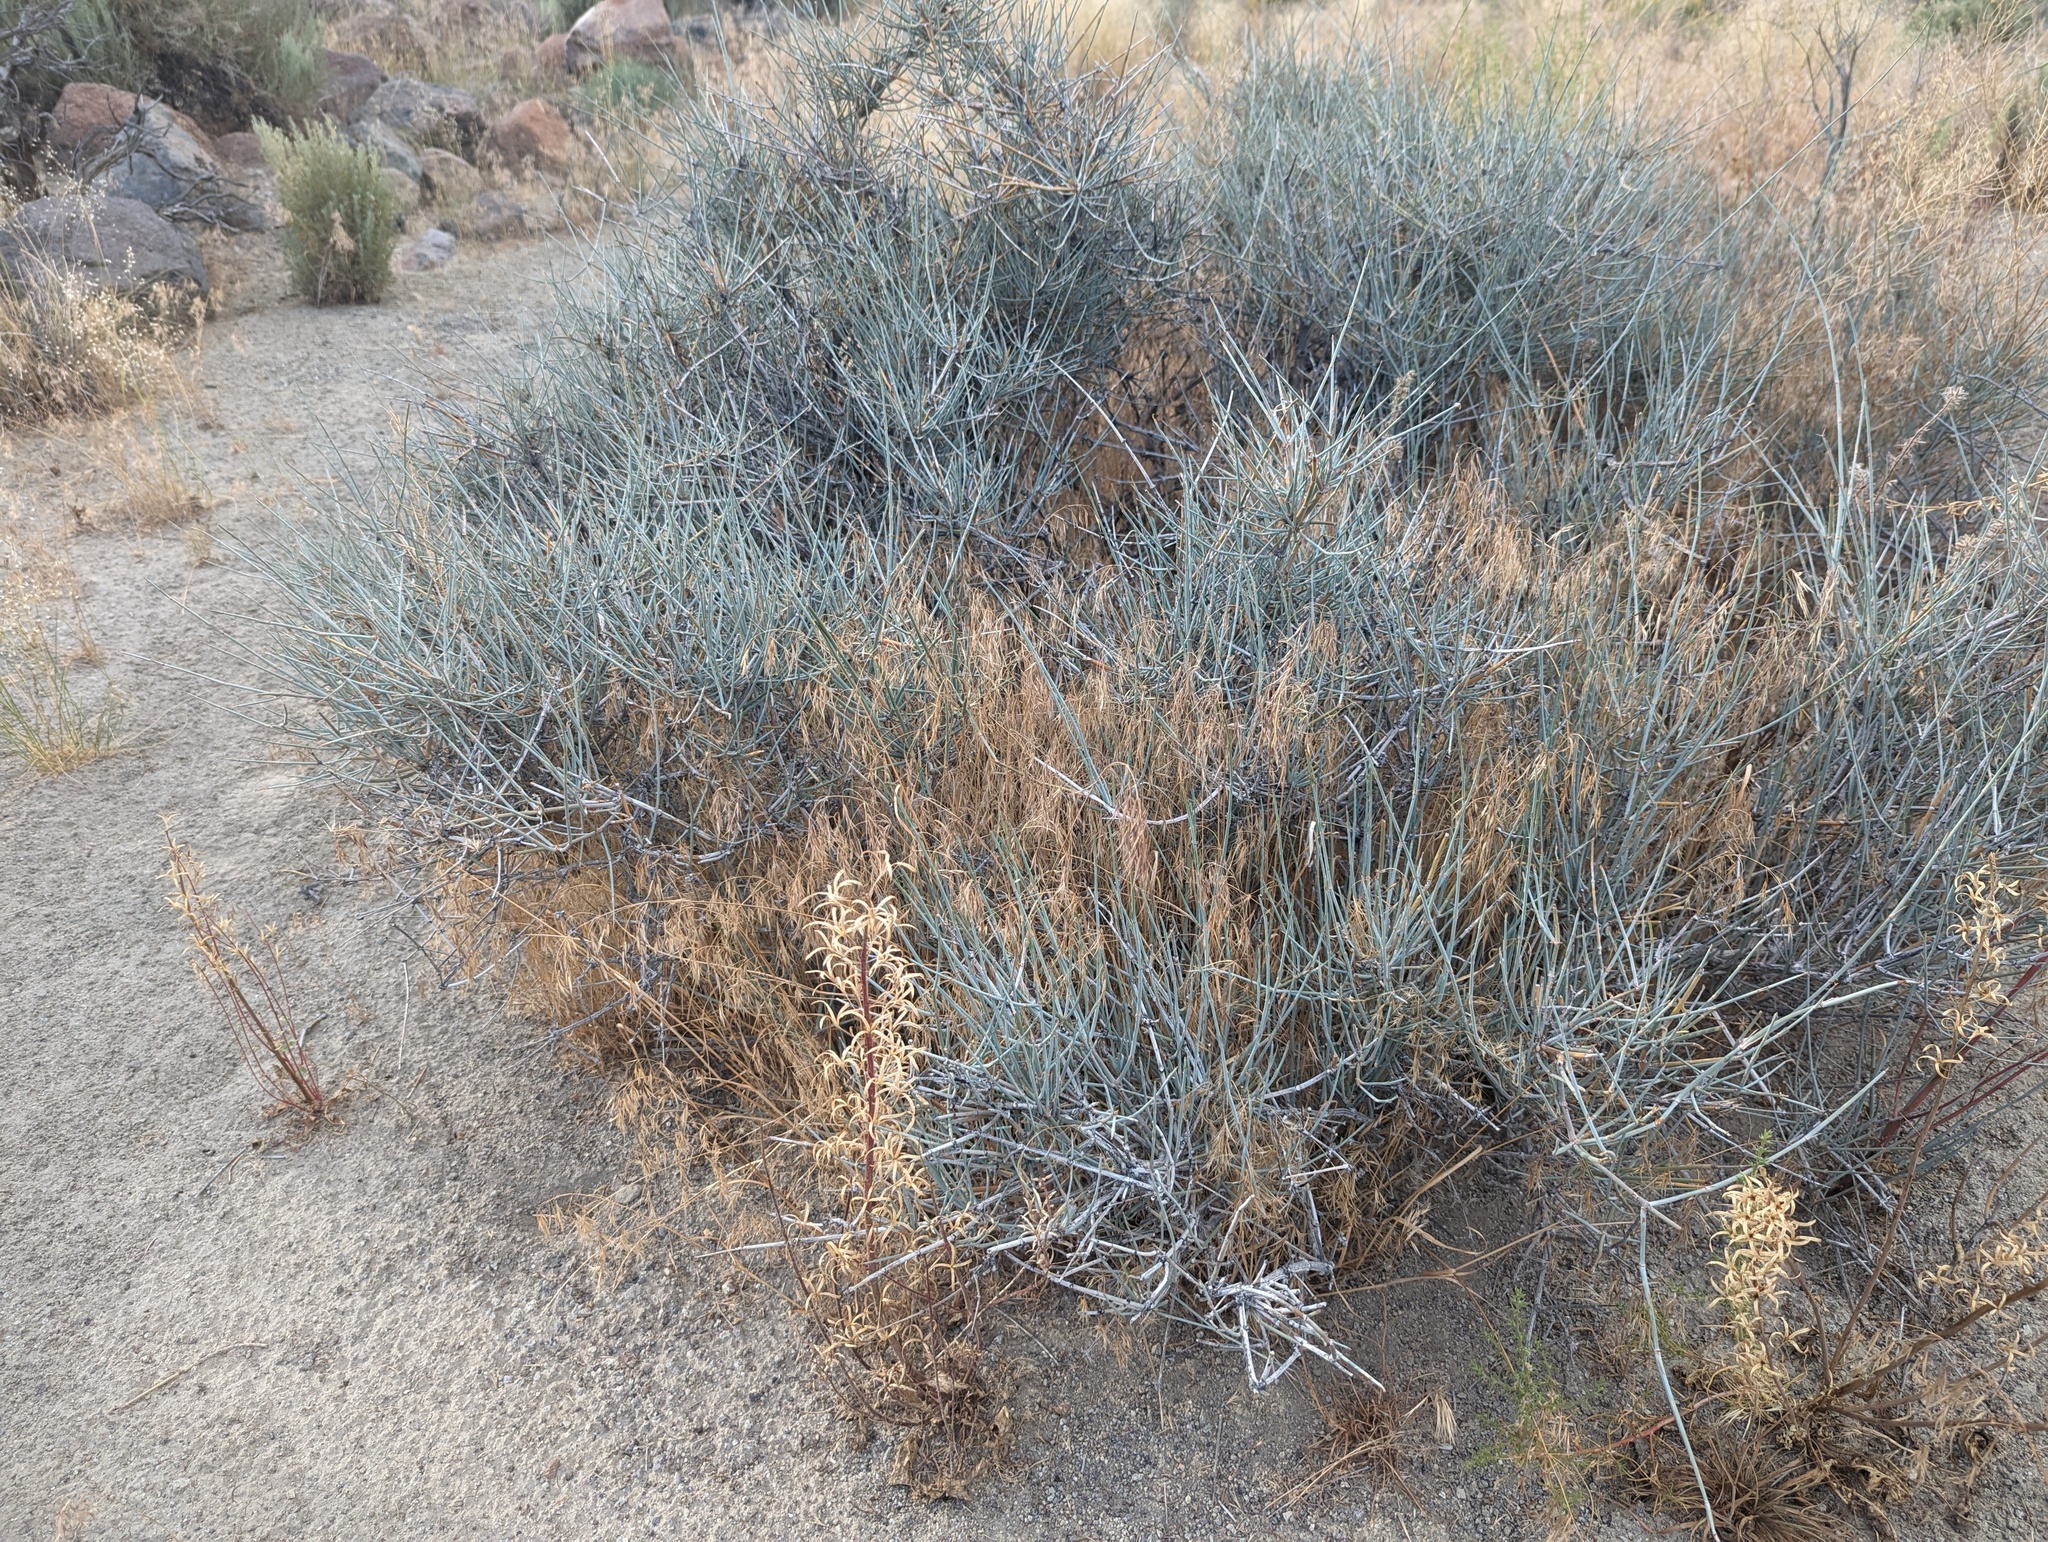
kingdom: Plantae
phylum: Tracheophyta
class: Gnetopsida
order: Ephedrales
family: Ephedraceae
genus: Ephedra
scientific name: Ephedra nevadensis
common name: Gray ephedra
